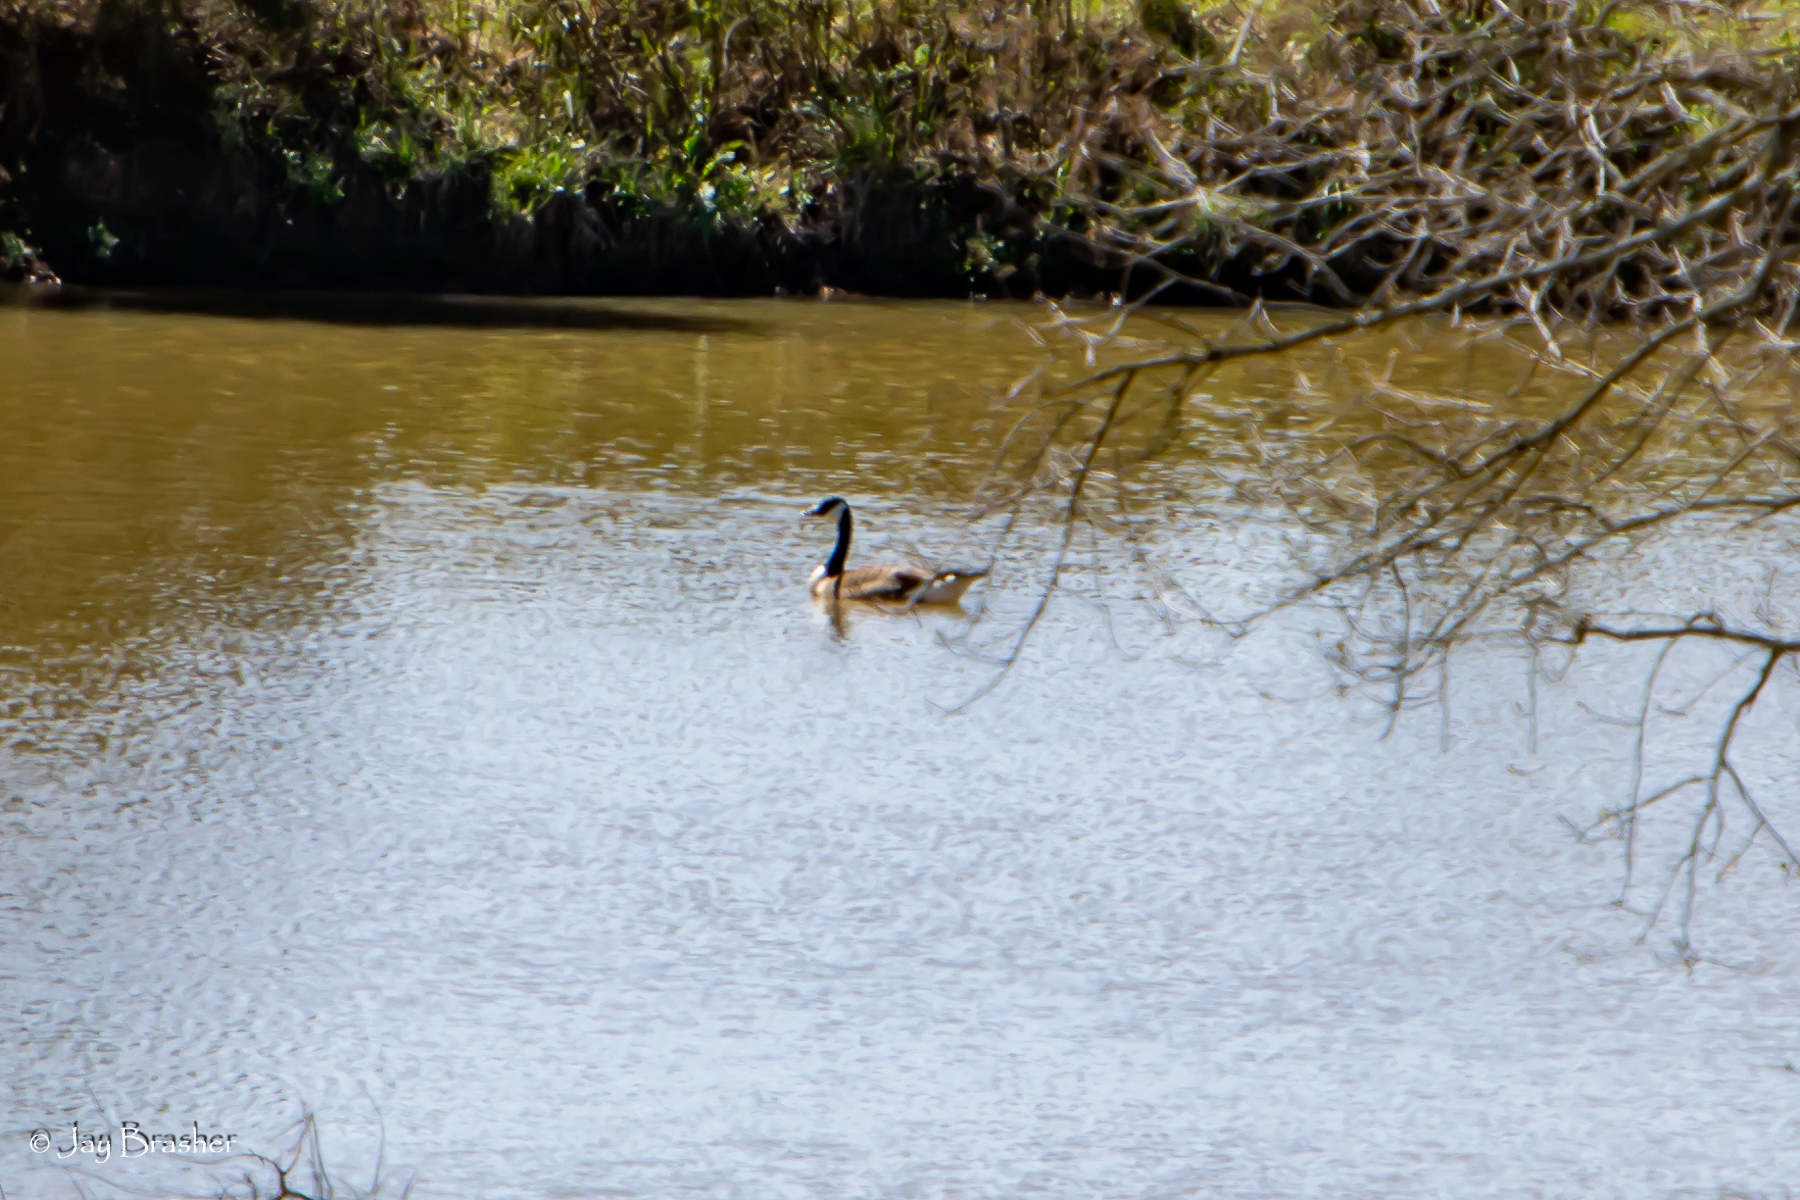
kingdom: Animalia
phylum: Chordata
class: Aves
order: Anseriformes
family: Anatidae
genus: Branta
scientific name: Branta canadensis
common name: Canada goose
